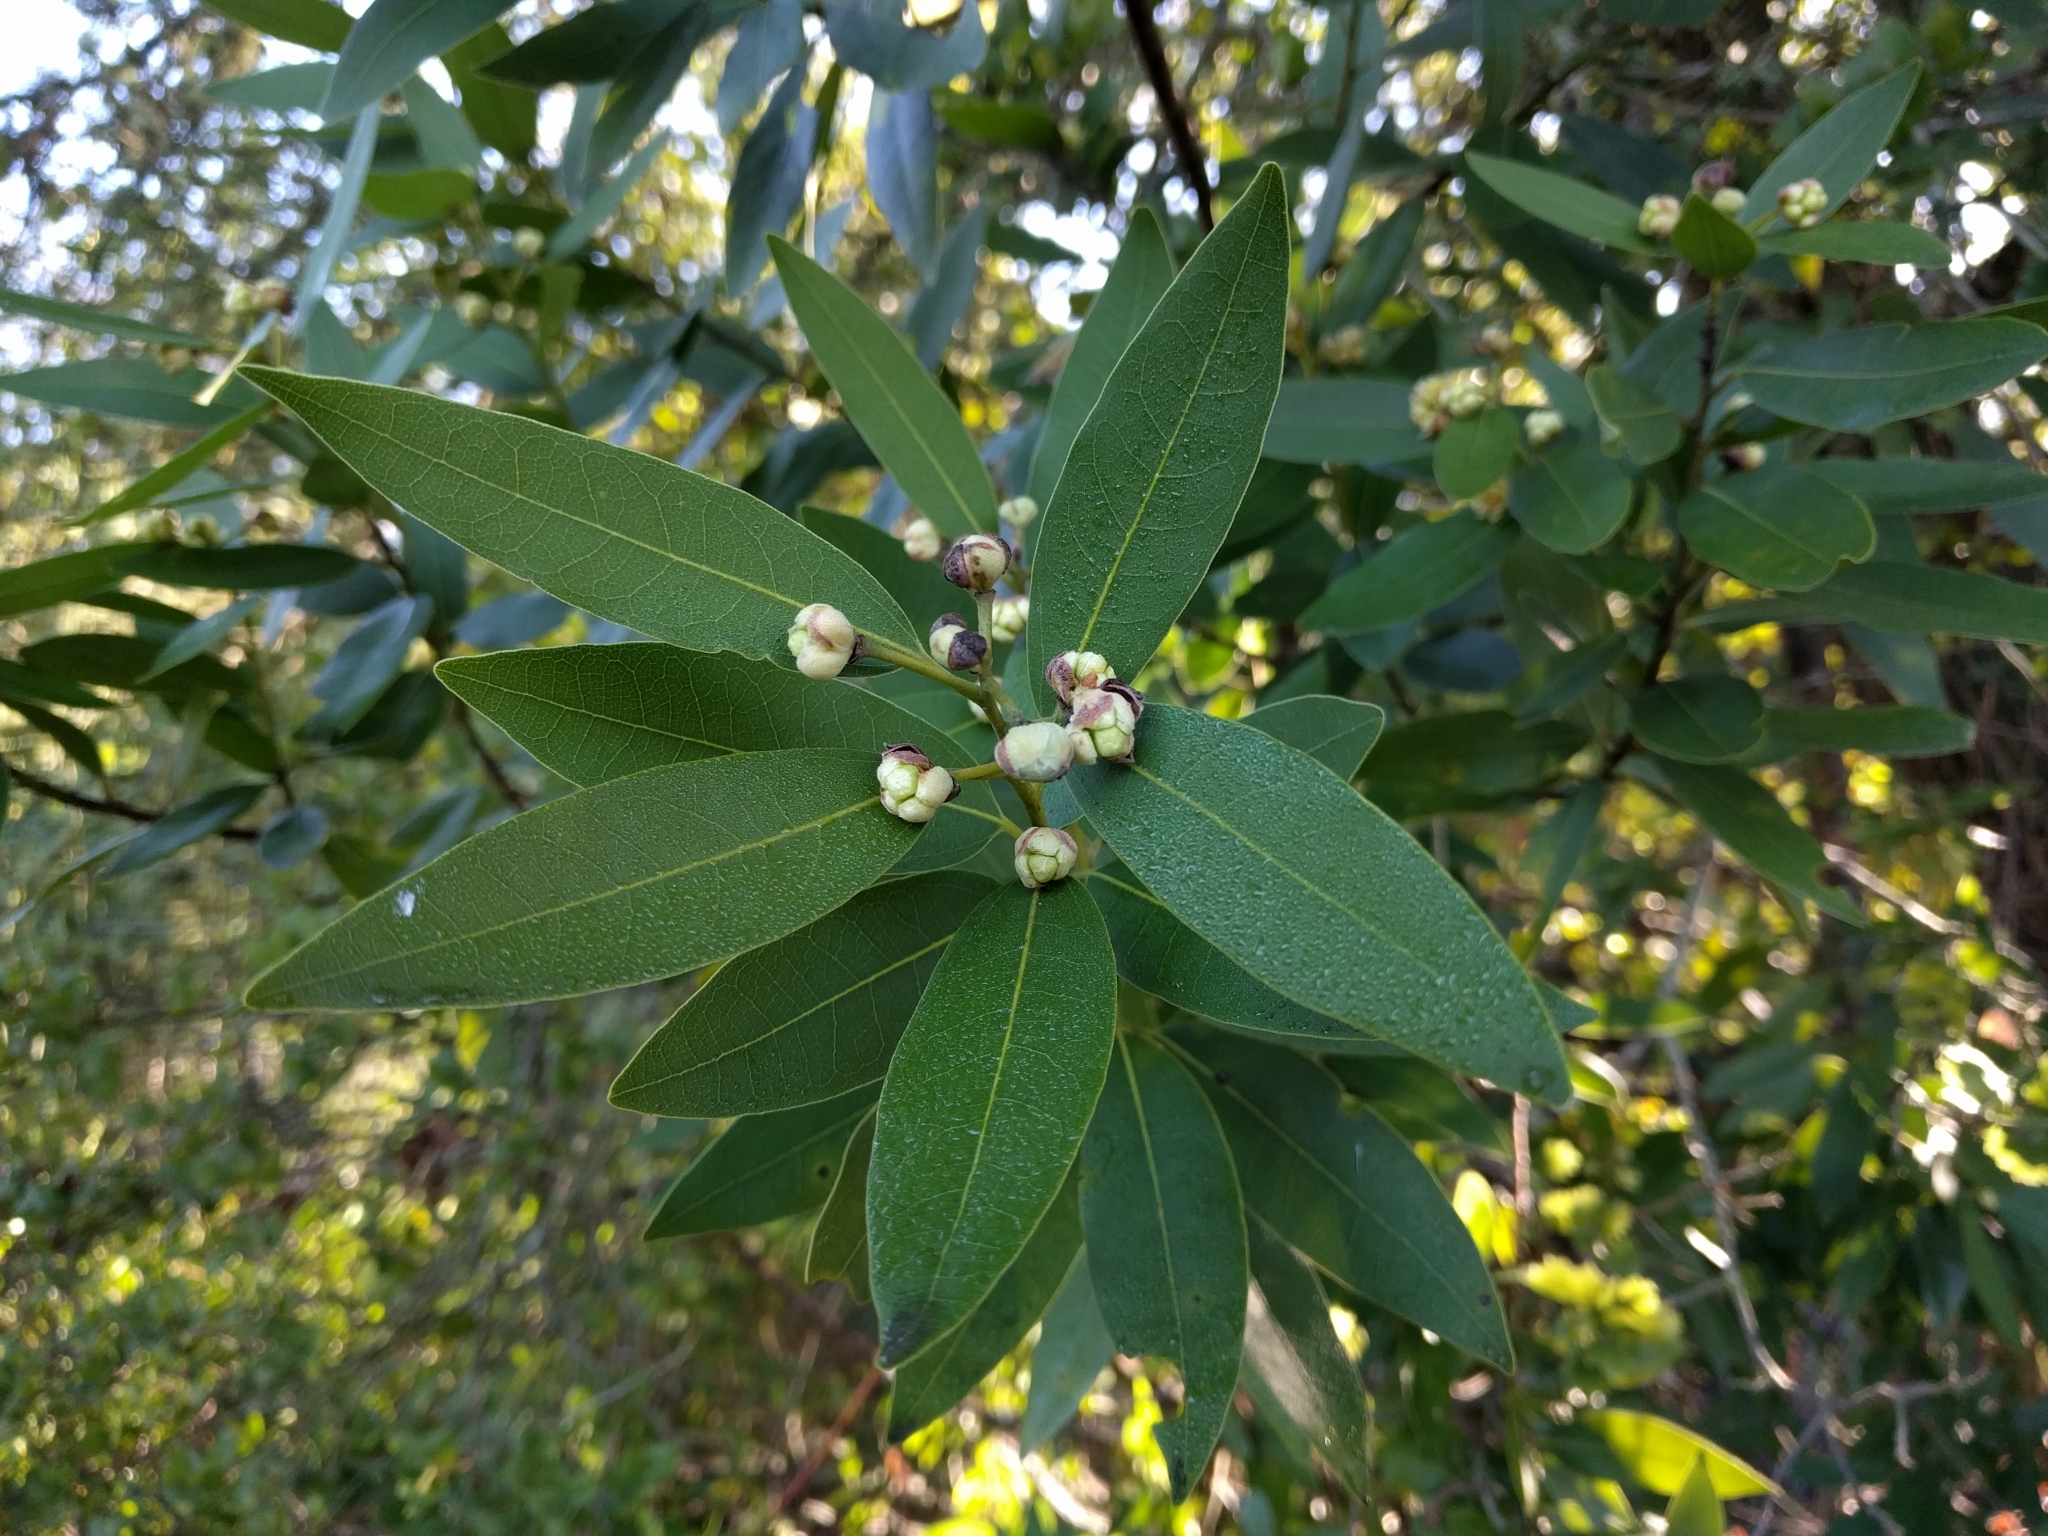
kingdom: Plantae
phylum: Tracheophyta
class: Magnoliopsida
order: Laurales
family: Lauraceae
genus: Umbellularia
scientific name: Umbellularia californica
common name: California bay
